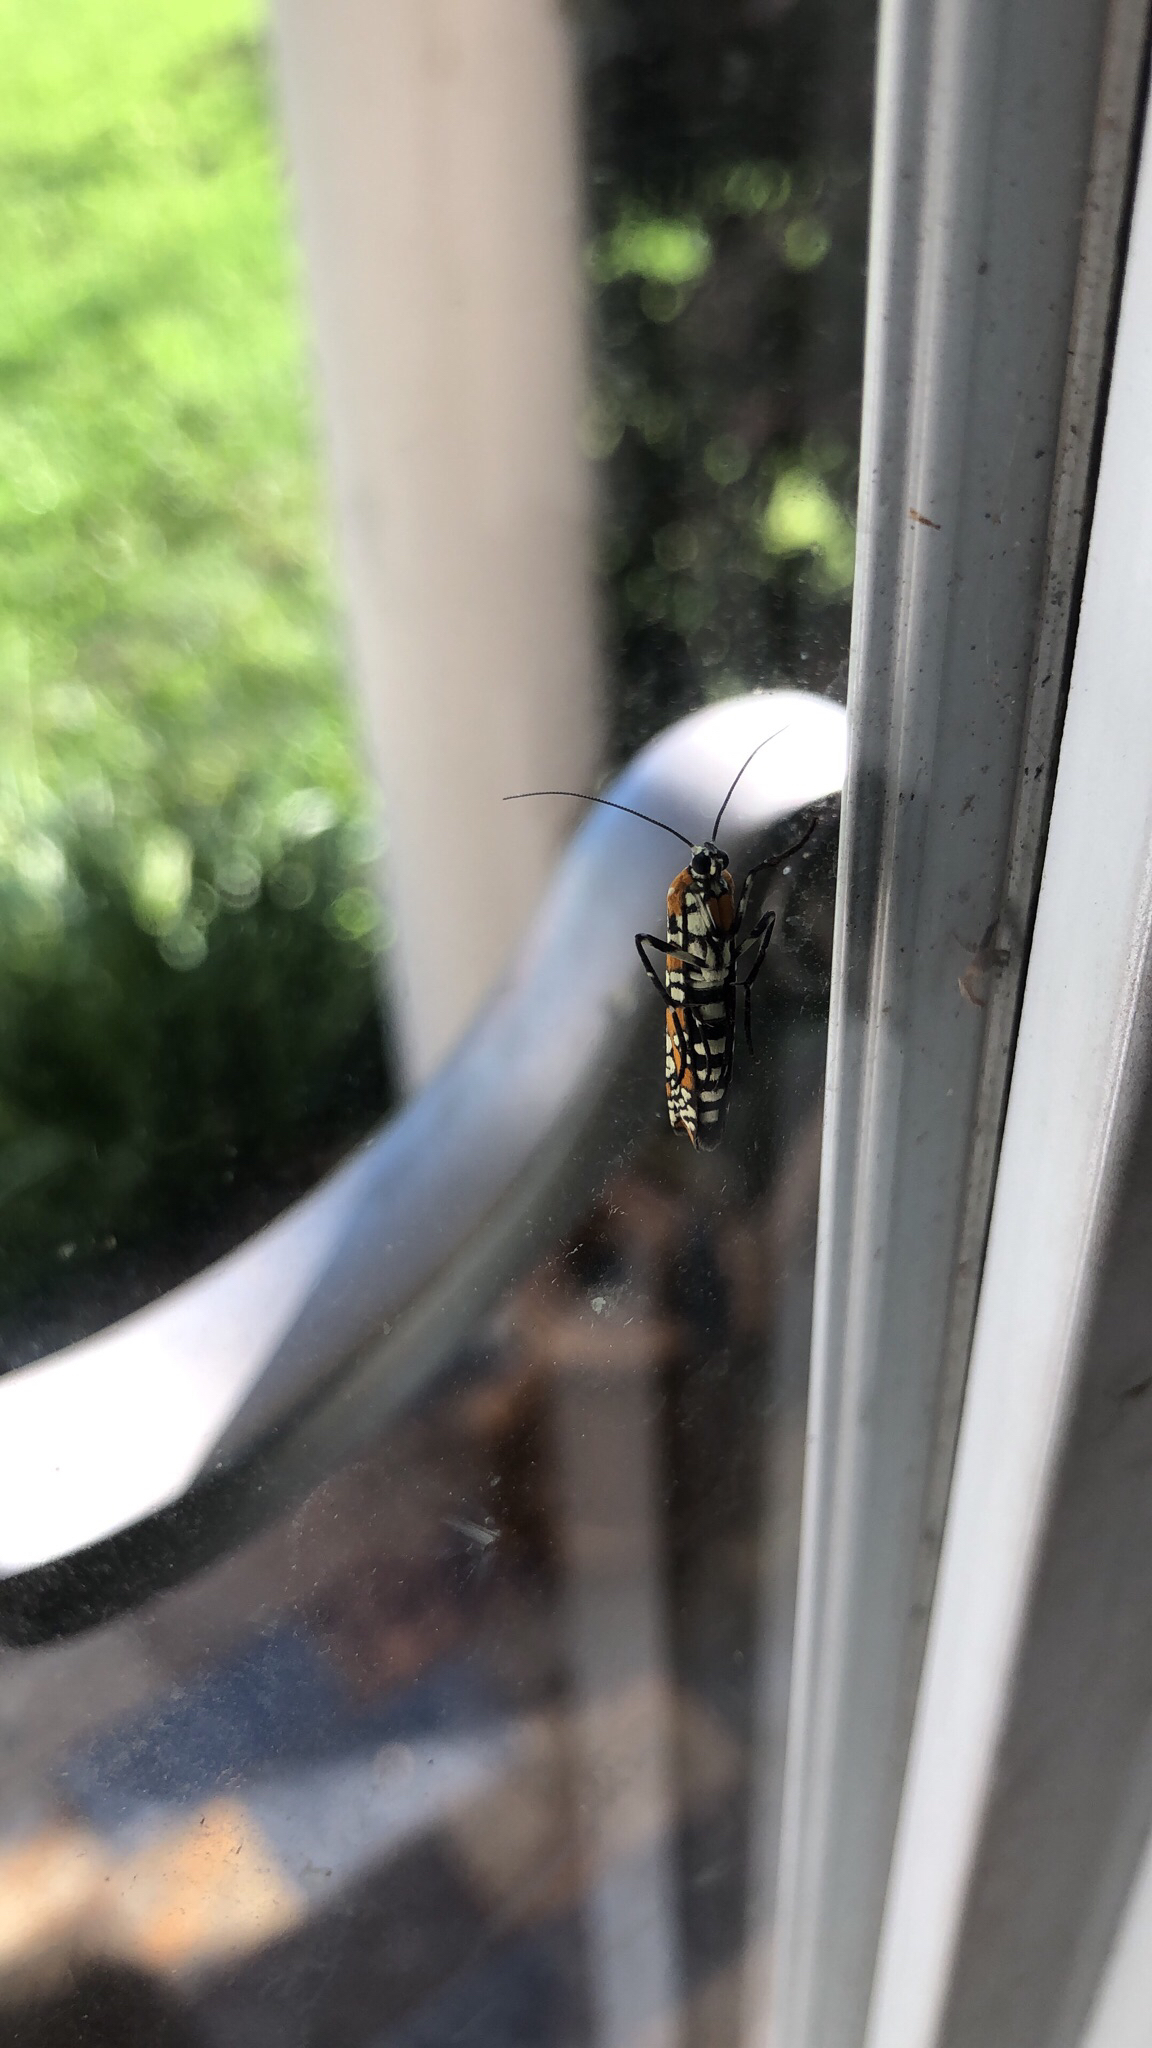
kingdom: Animalia
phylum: Arthropoda
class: Insecta
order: Lepidoptera
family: Attevidae
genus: Atteva
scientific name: Atteva punctella
